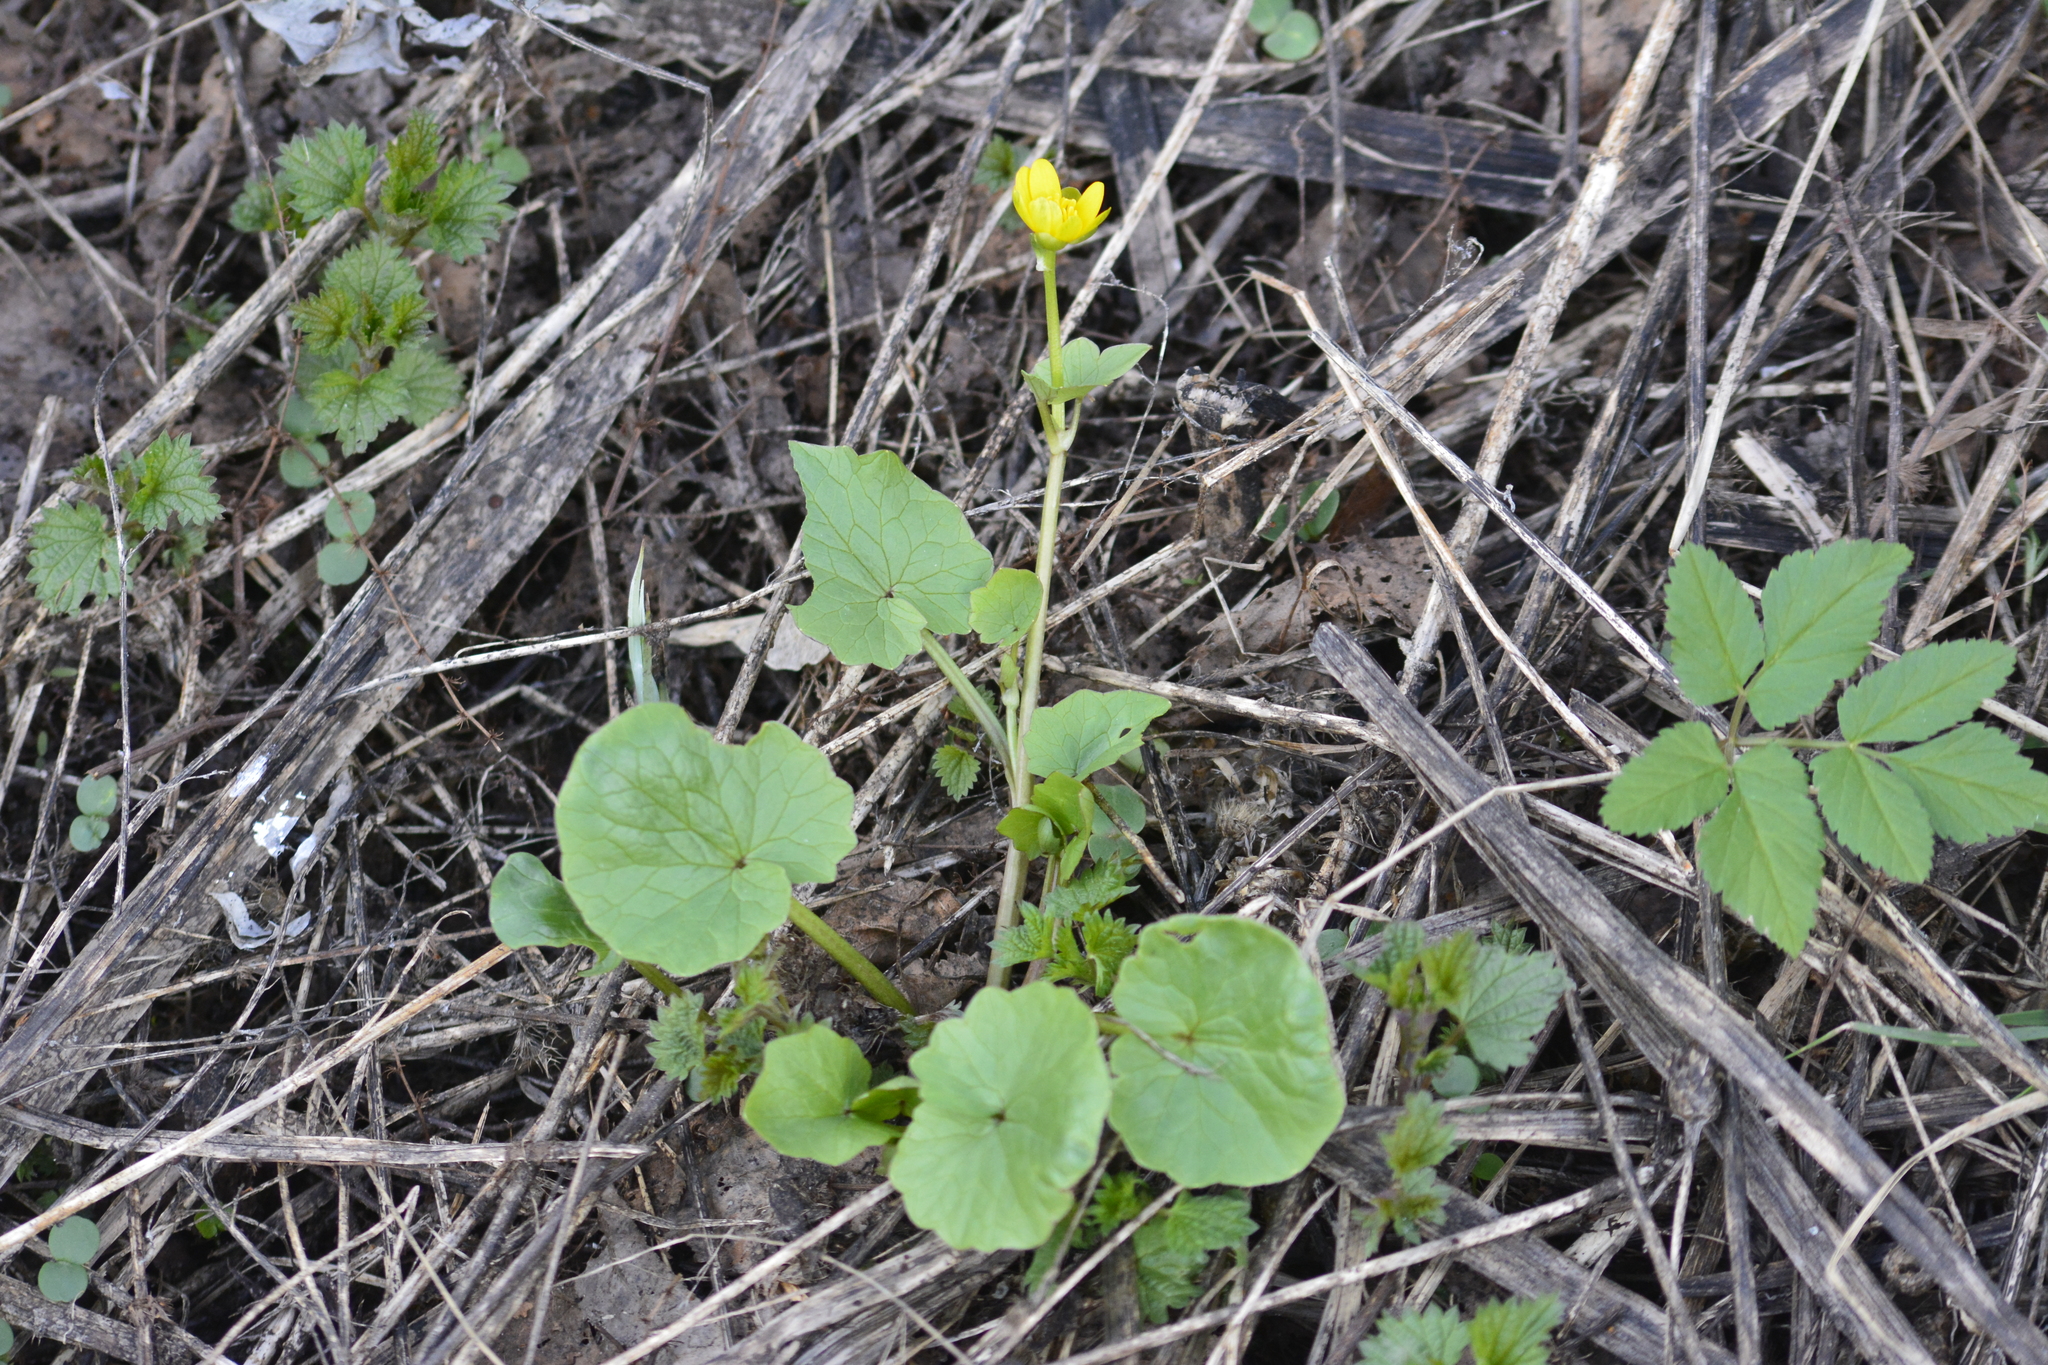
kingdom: Plantae
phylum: Tracheophyta
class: Magnoliopsida
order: Ranunculales
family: Ranunculaceae
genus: Ficaria
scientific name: Ficaria verna
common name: Lesser celandine
